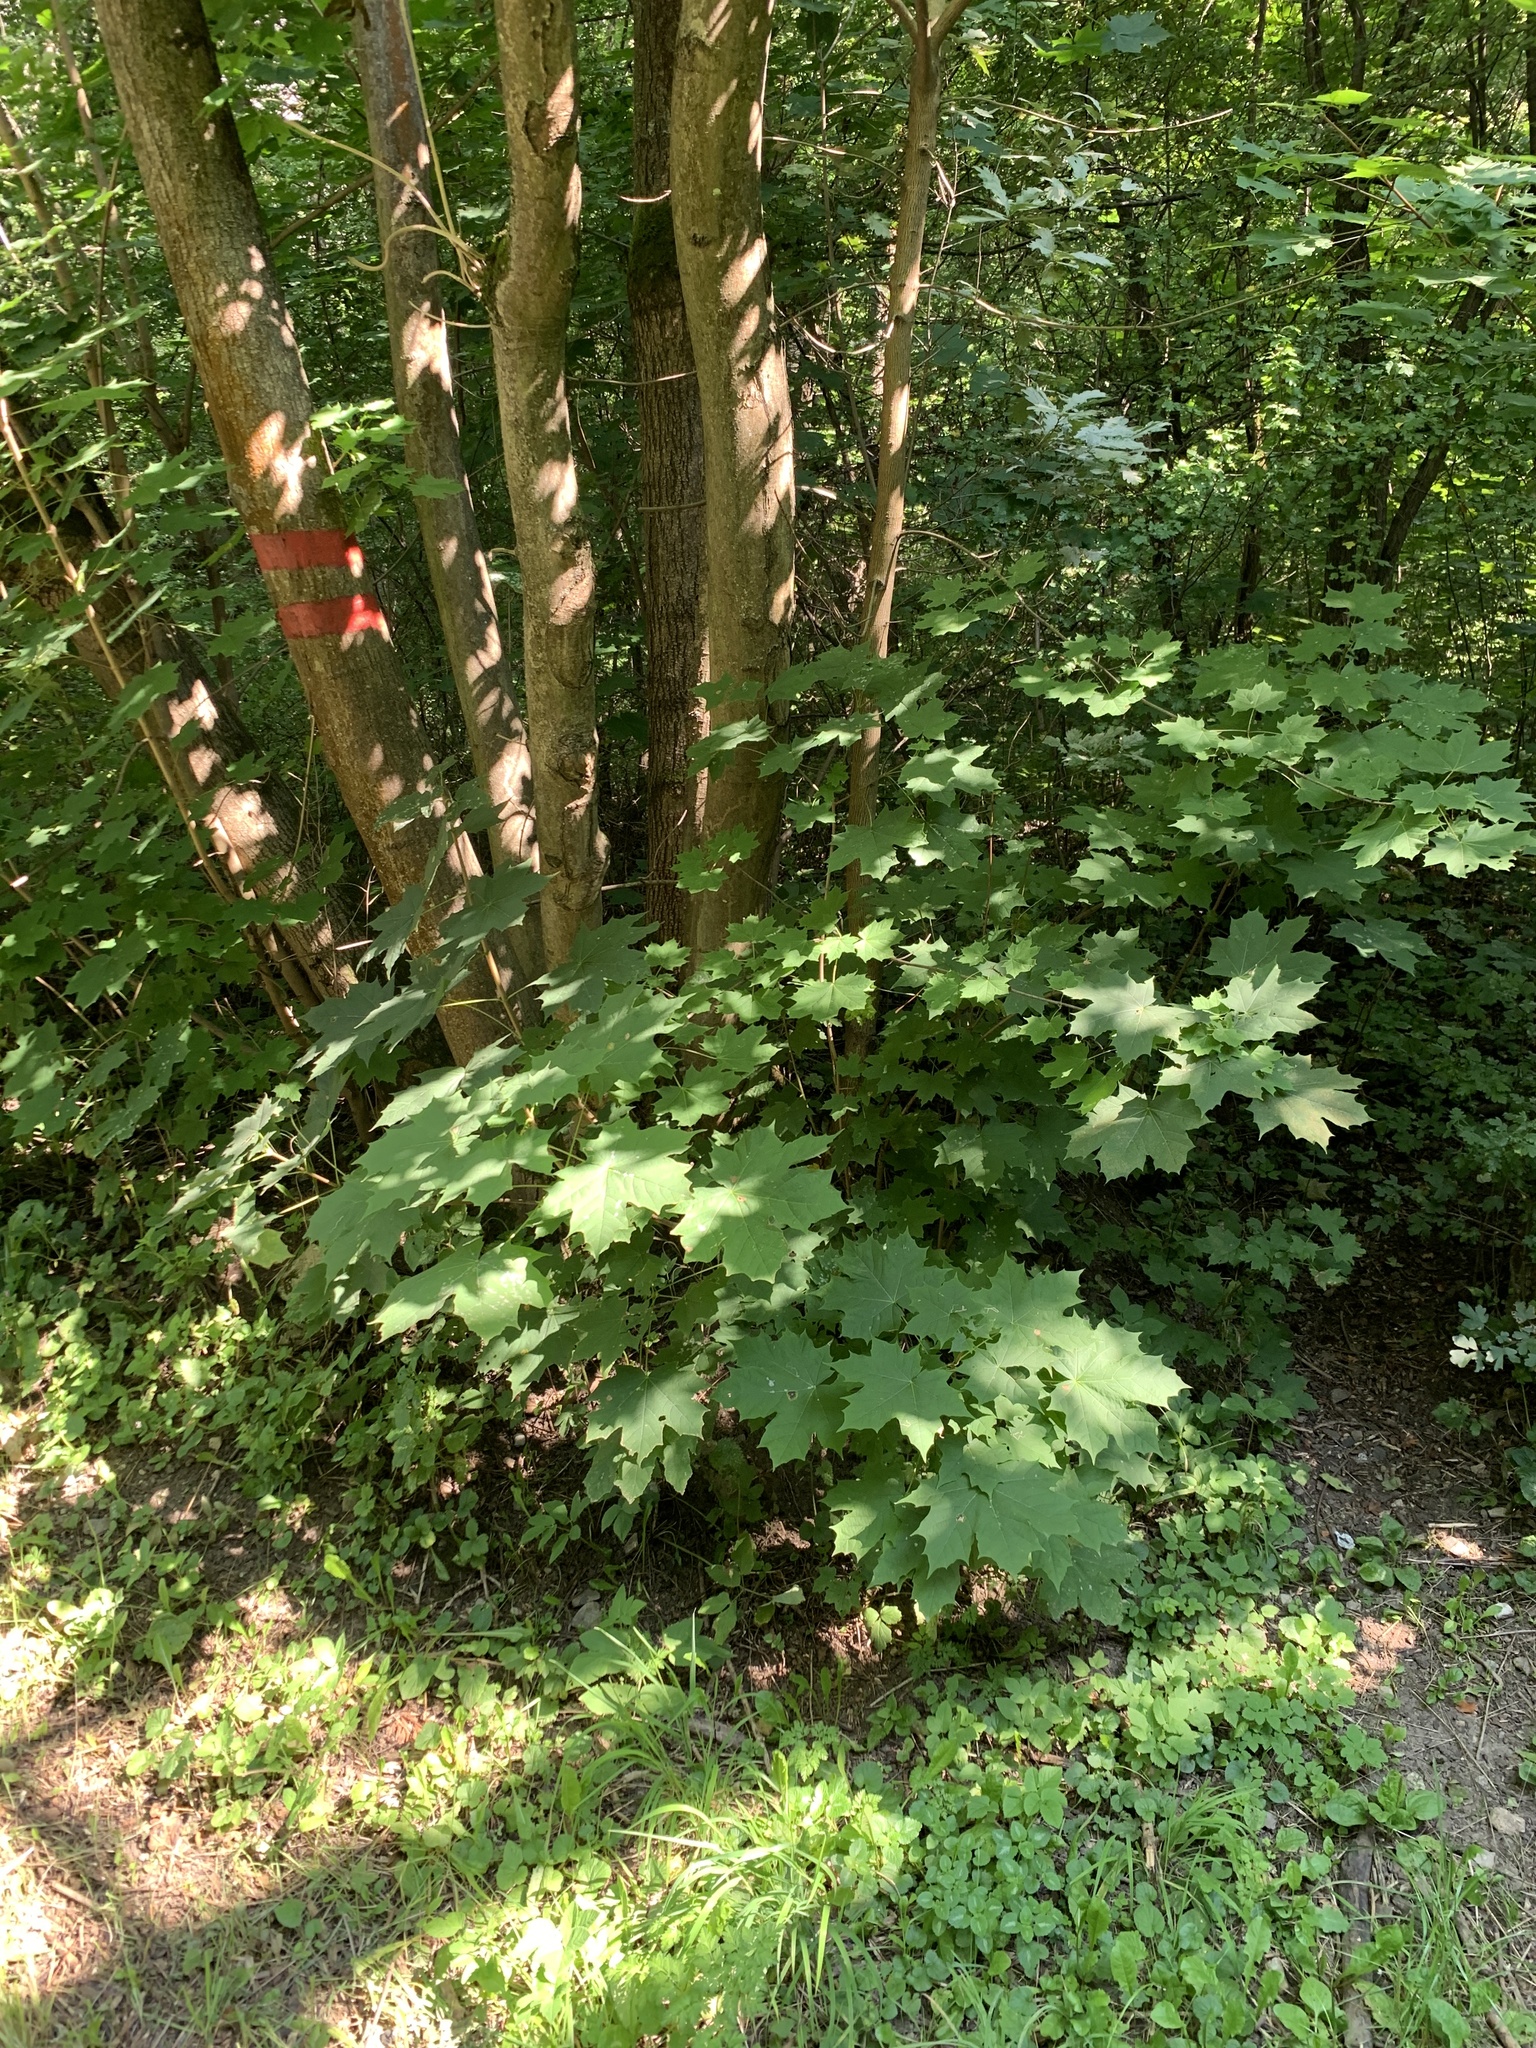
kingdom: Plantae
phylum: Tracheophyta
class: Magnoliopsida
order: Sapindales
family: Sapindaceae
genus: Acer
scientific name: Acer platanoides
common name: Norway maple
